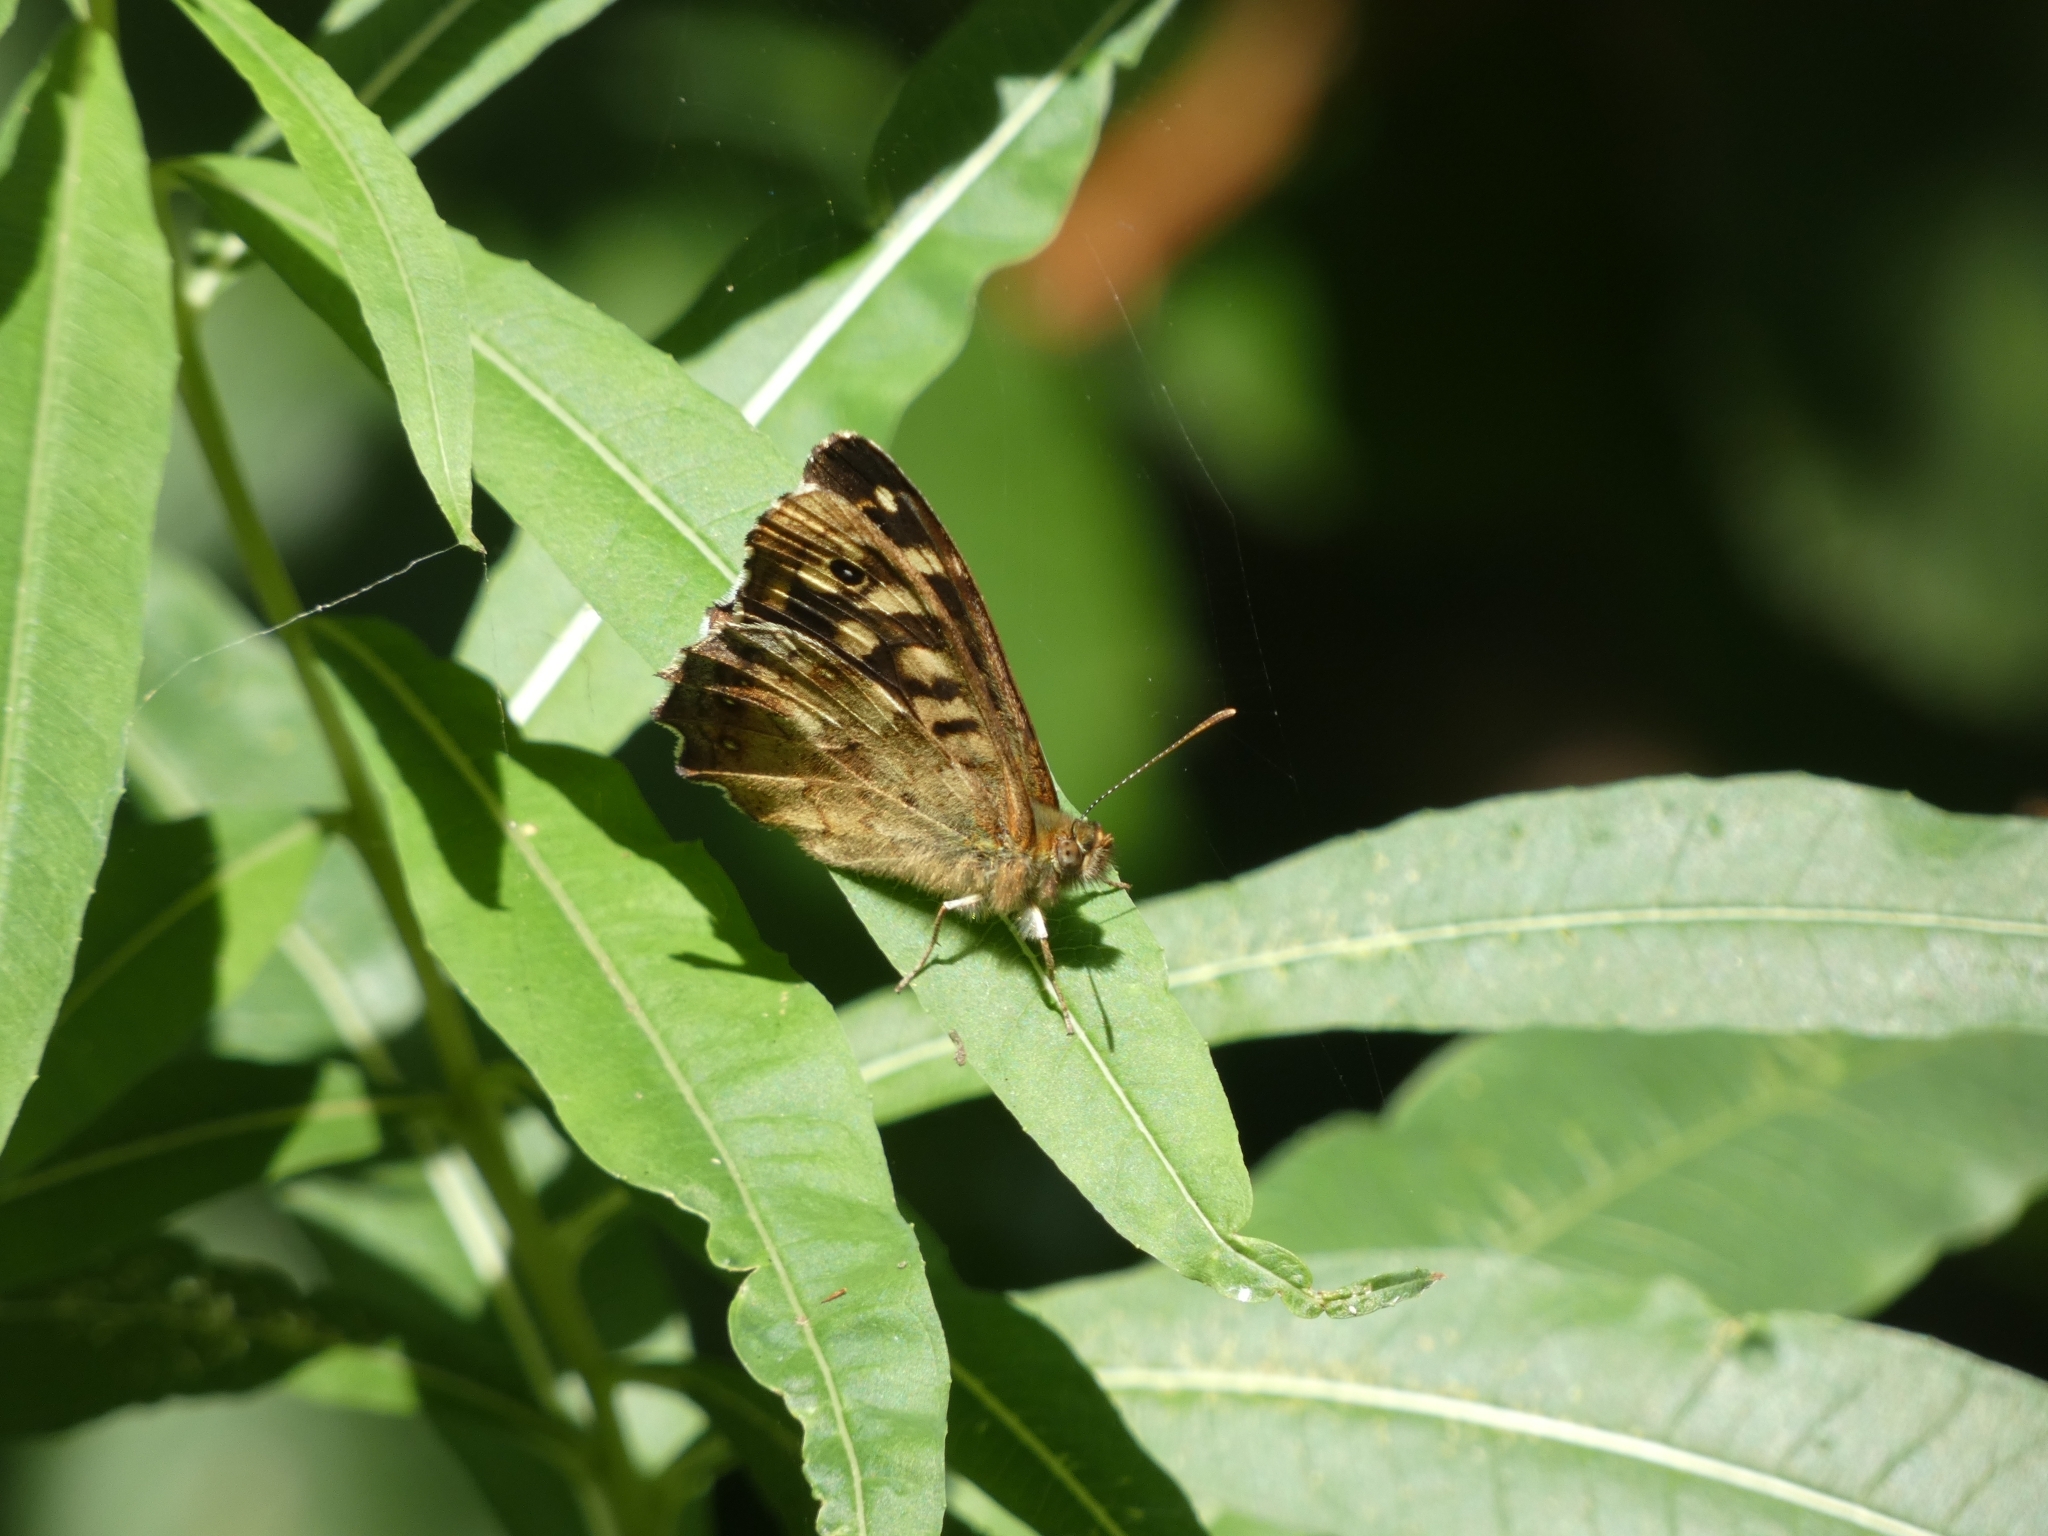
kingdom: Animalia
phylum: Arthropoda
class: Insecta
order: Lepidoptera
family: Nymphalidae
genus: Pararge
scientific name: Pararge aegeria
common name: Speckled wood
